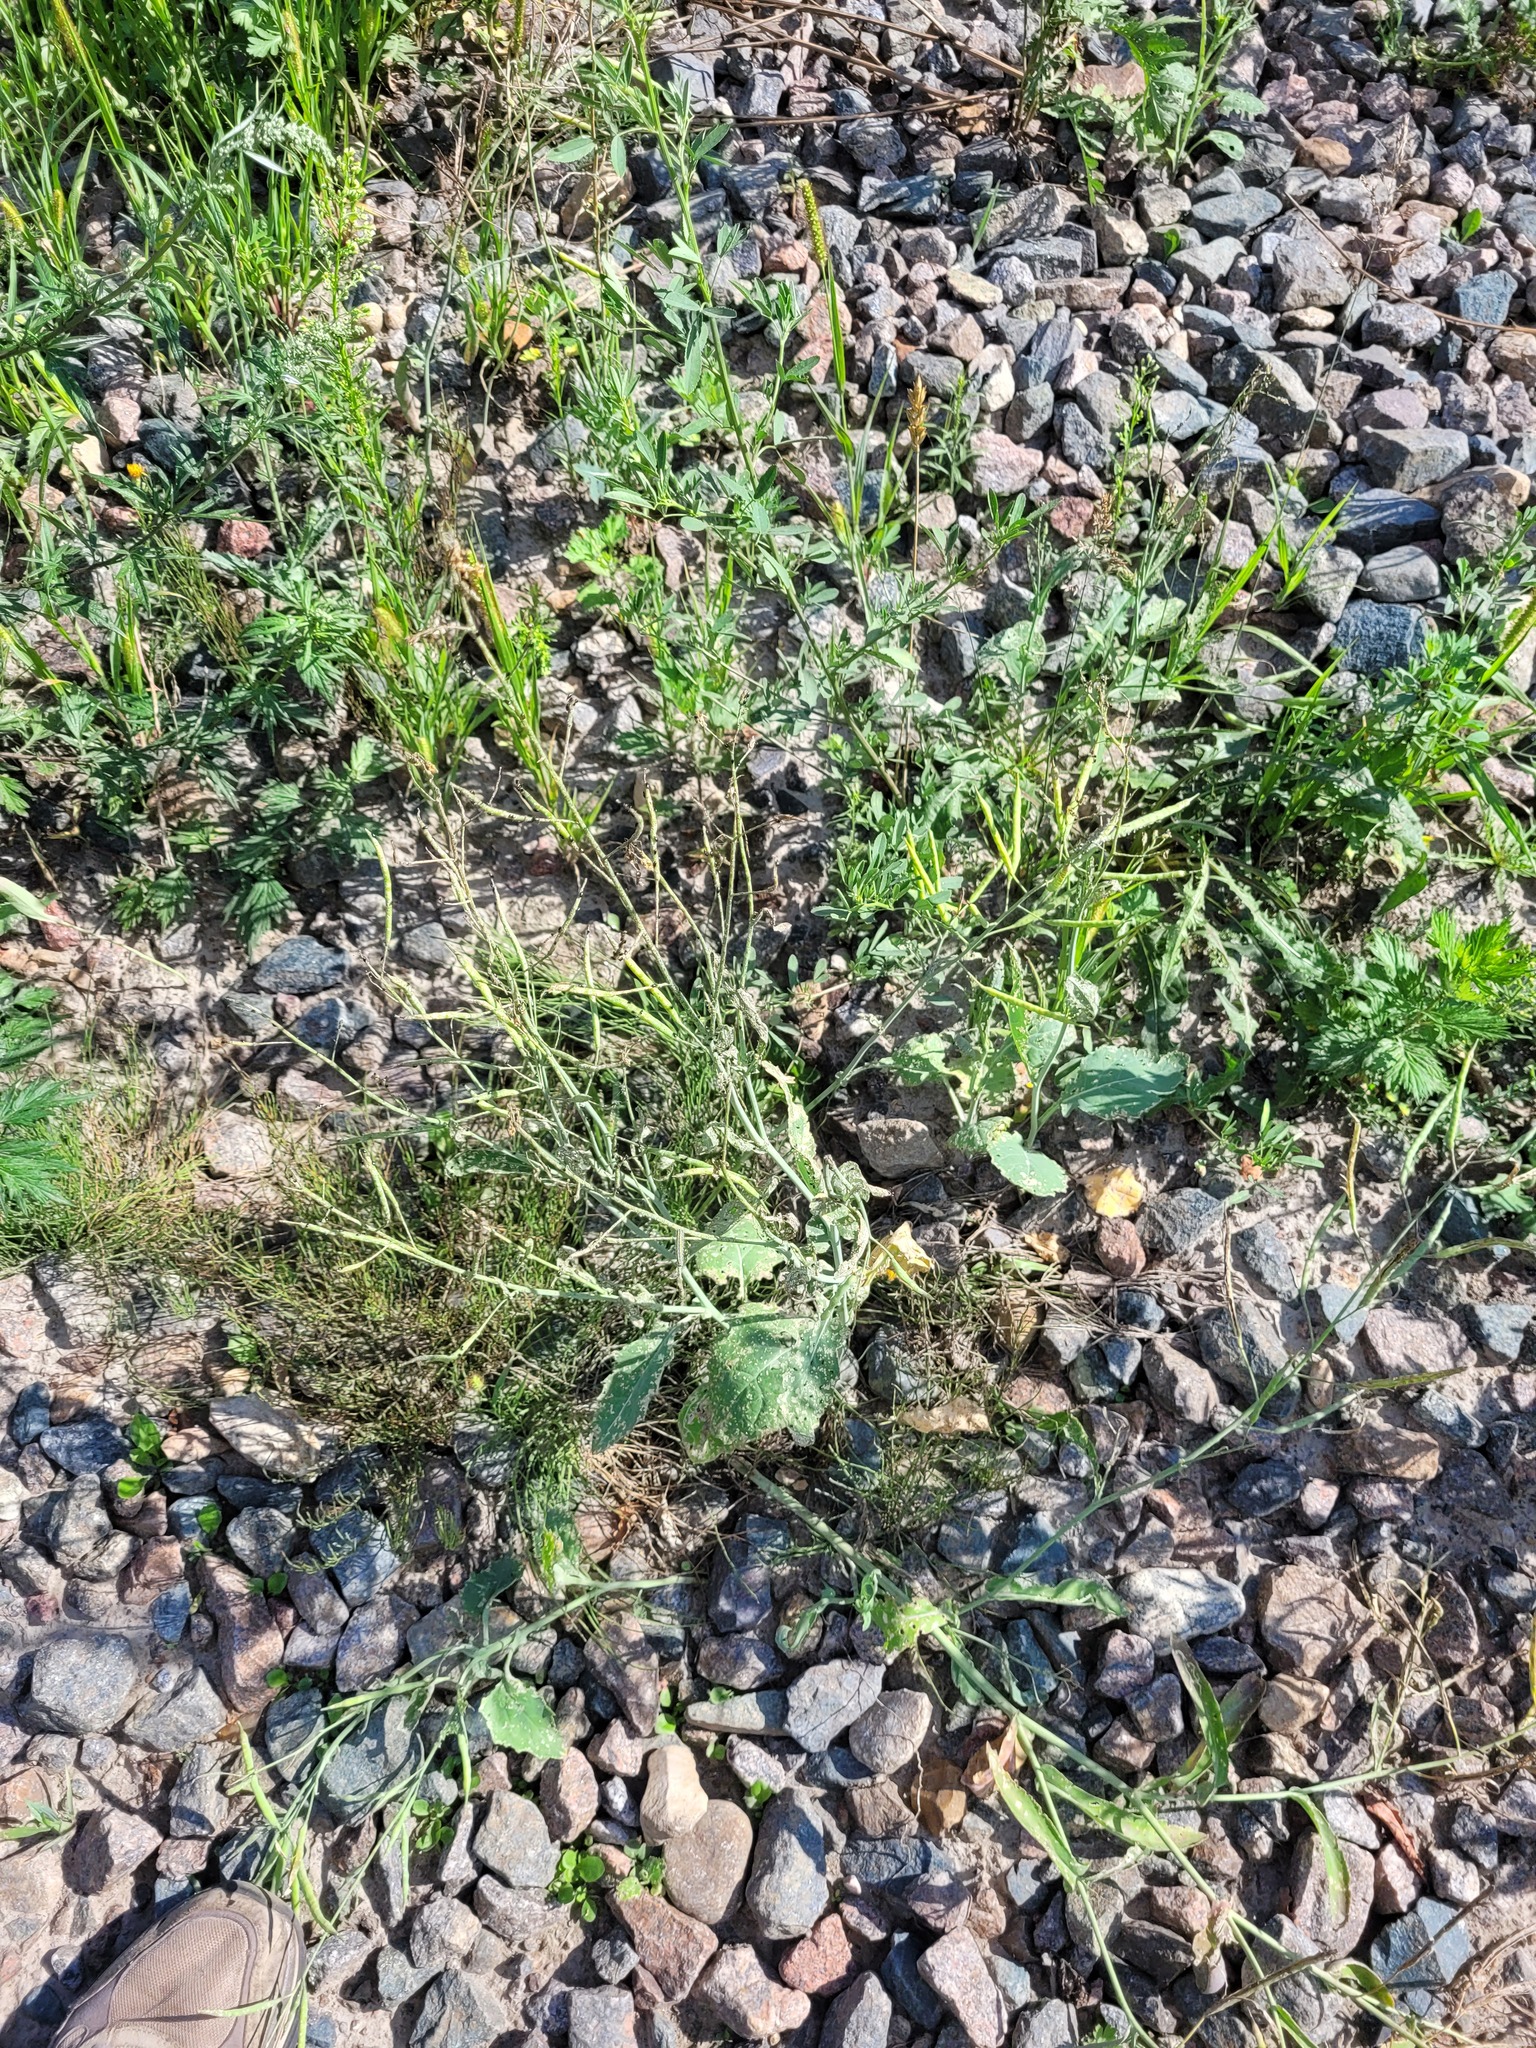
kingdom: Plantae
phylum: Tracheophyta
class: Magnoliopsida
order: Brassicales
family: Brassicaceae
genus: Brassica
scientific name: Brassica napus
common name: Rape
